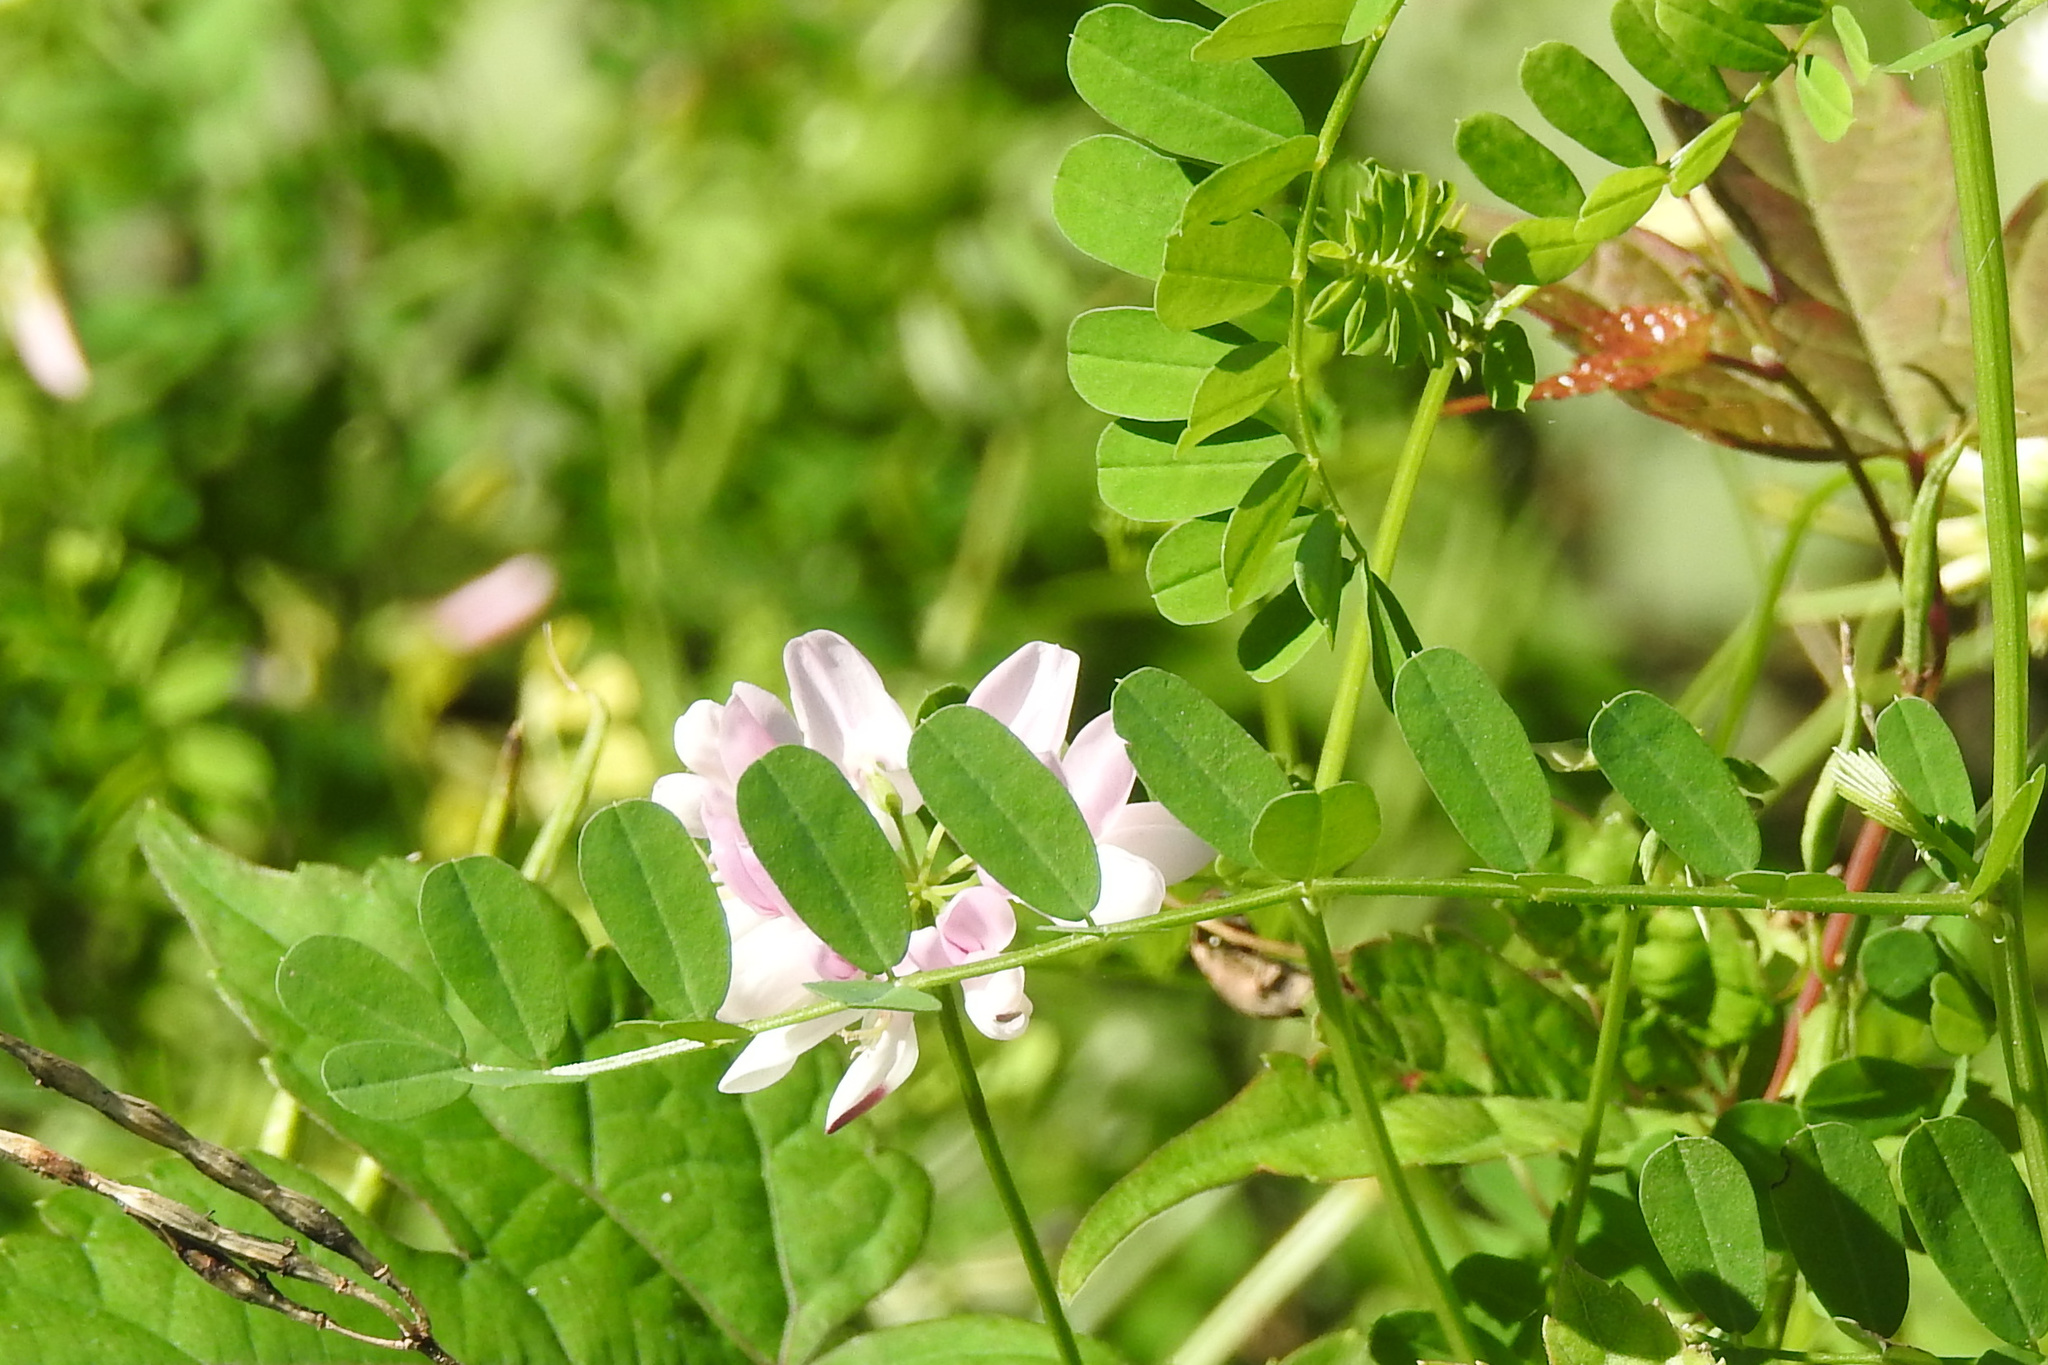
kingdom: Plantae
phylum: Tracheophyta
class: Magnoliopsida
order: Fabales
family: Fabaceae
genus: Coronilla
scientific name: Coronilla varia
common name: Crownvetch
